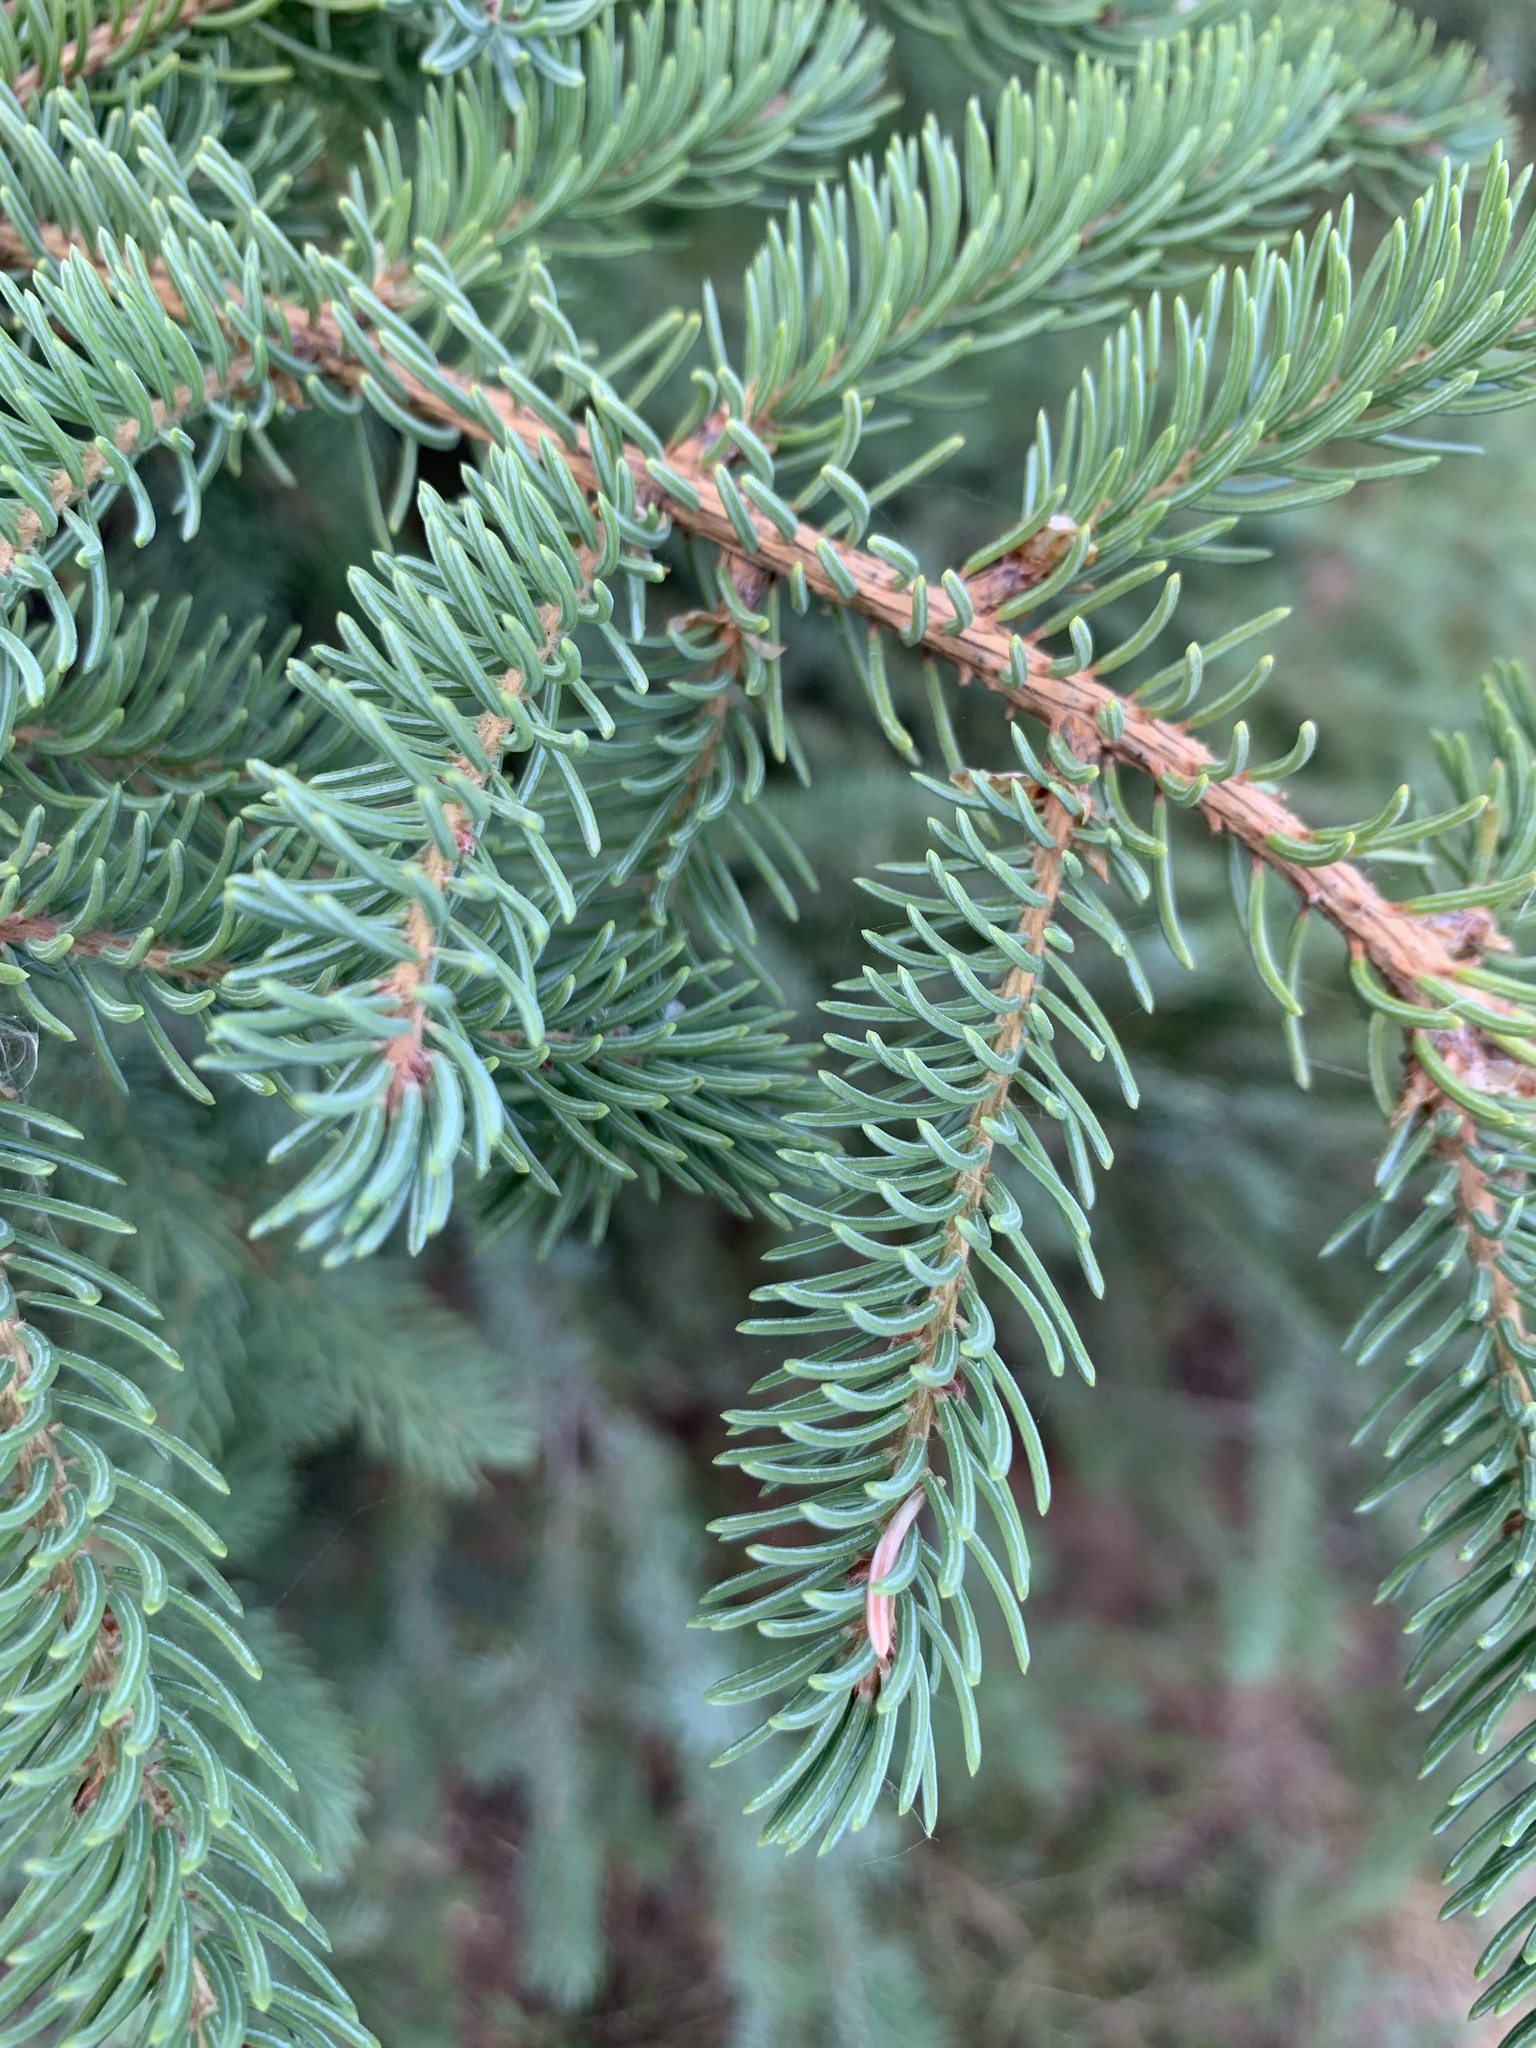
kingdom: Plantae
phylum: Tracheophyta
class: Pinopsida
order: Pinales
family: Pinaceae
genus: Picea
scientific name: Picea glauca
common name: White spruce
